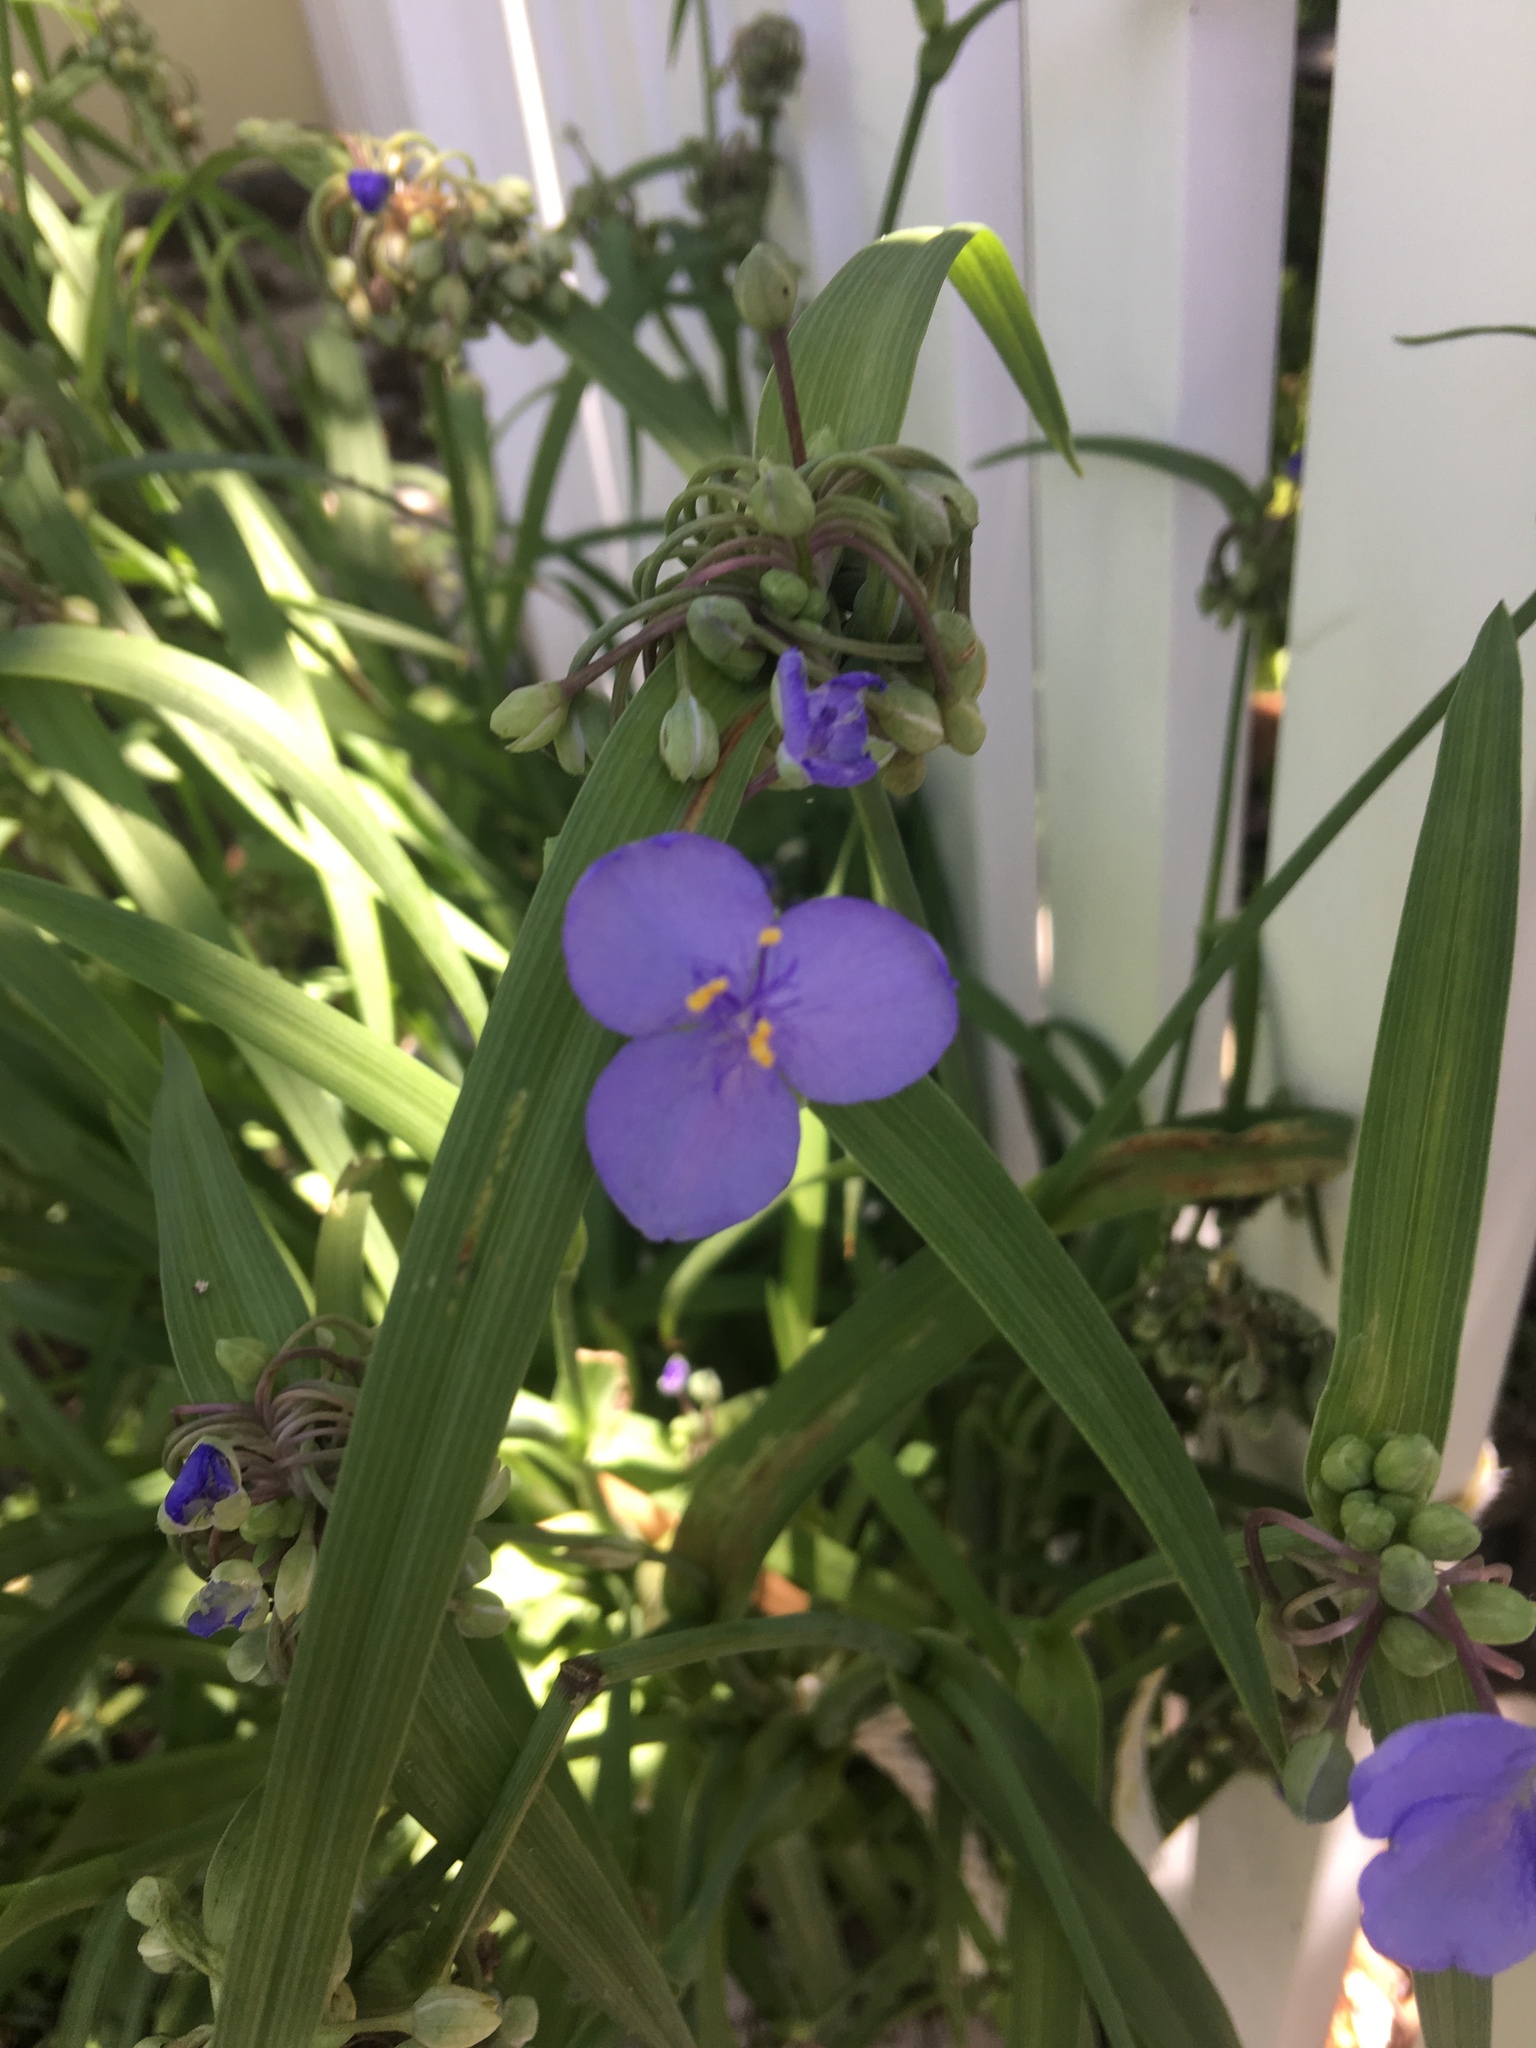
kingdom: Plantae
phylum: Tracheophyta
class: Liliopsida
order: Commelinales
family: Commelinaceae
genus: Tradescantia
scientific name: Tradescantia ohiensis
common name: Ohio spiderwort
